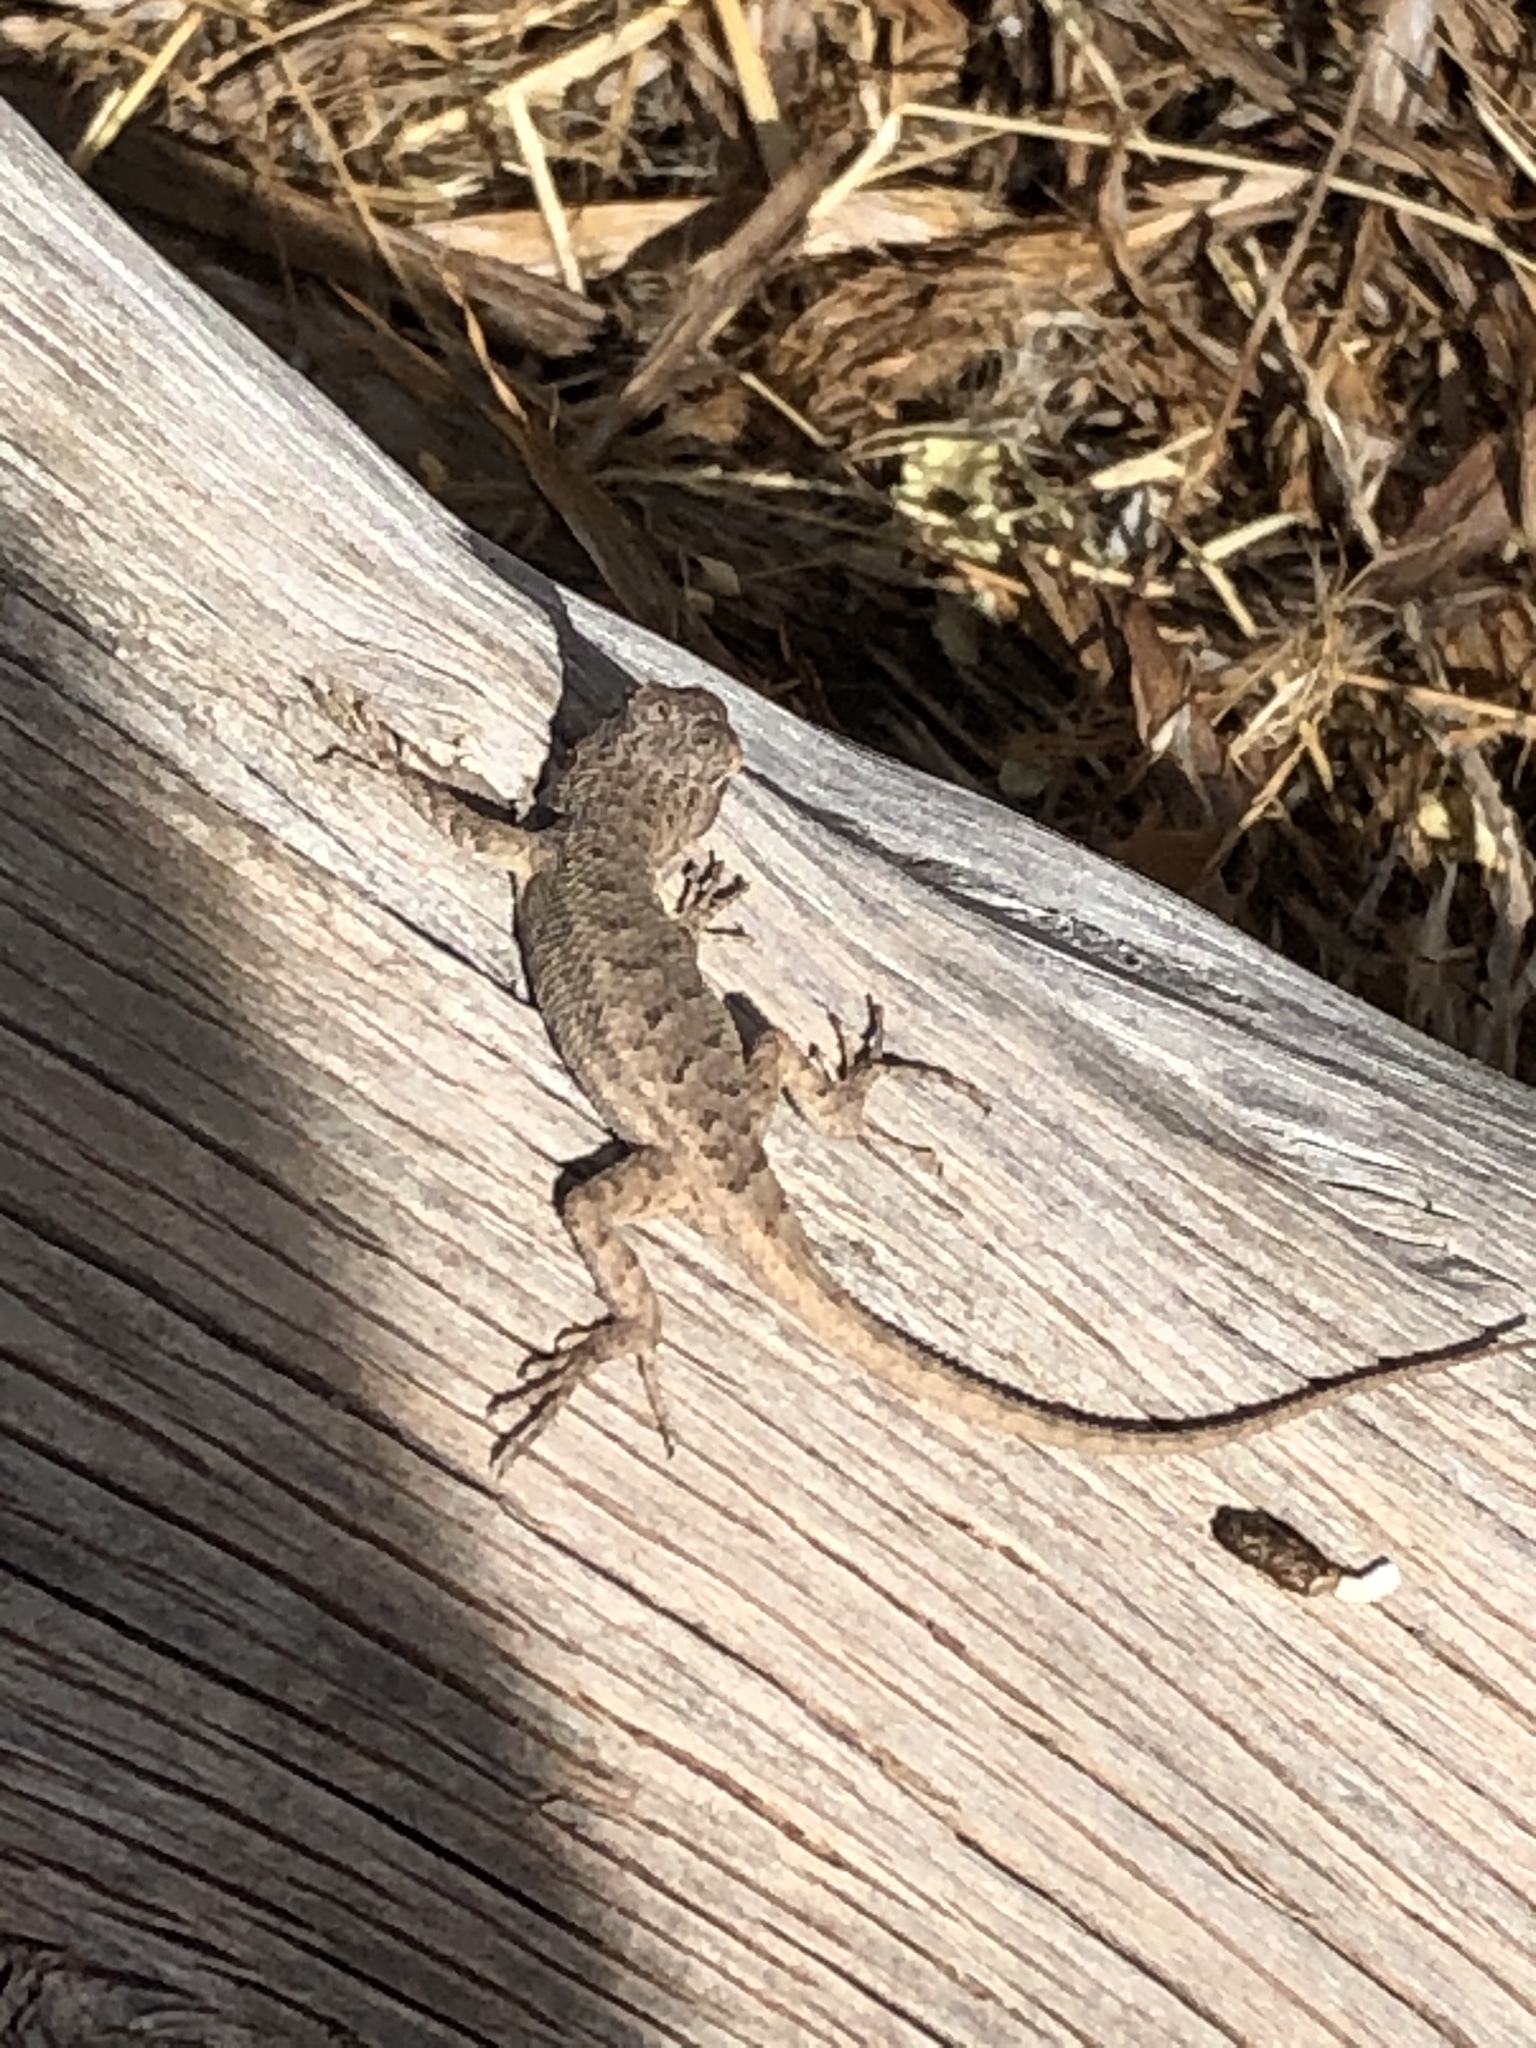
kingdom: Animalia
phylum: Chordata
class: Squamata
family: Phrynosomatidae
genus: Sceloporus
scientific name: Sceloporus tristichus
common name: Plateau fence lizard
